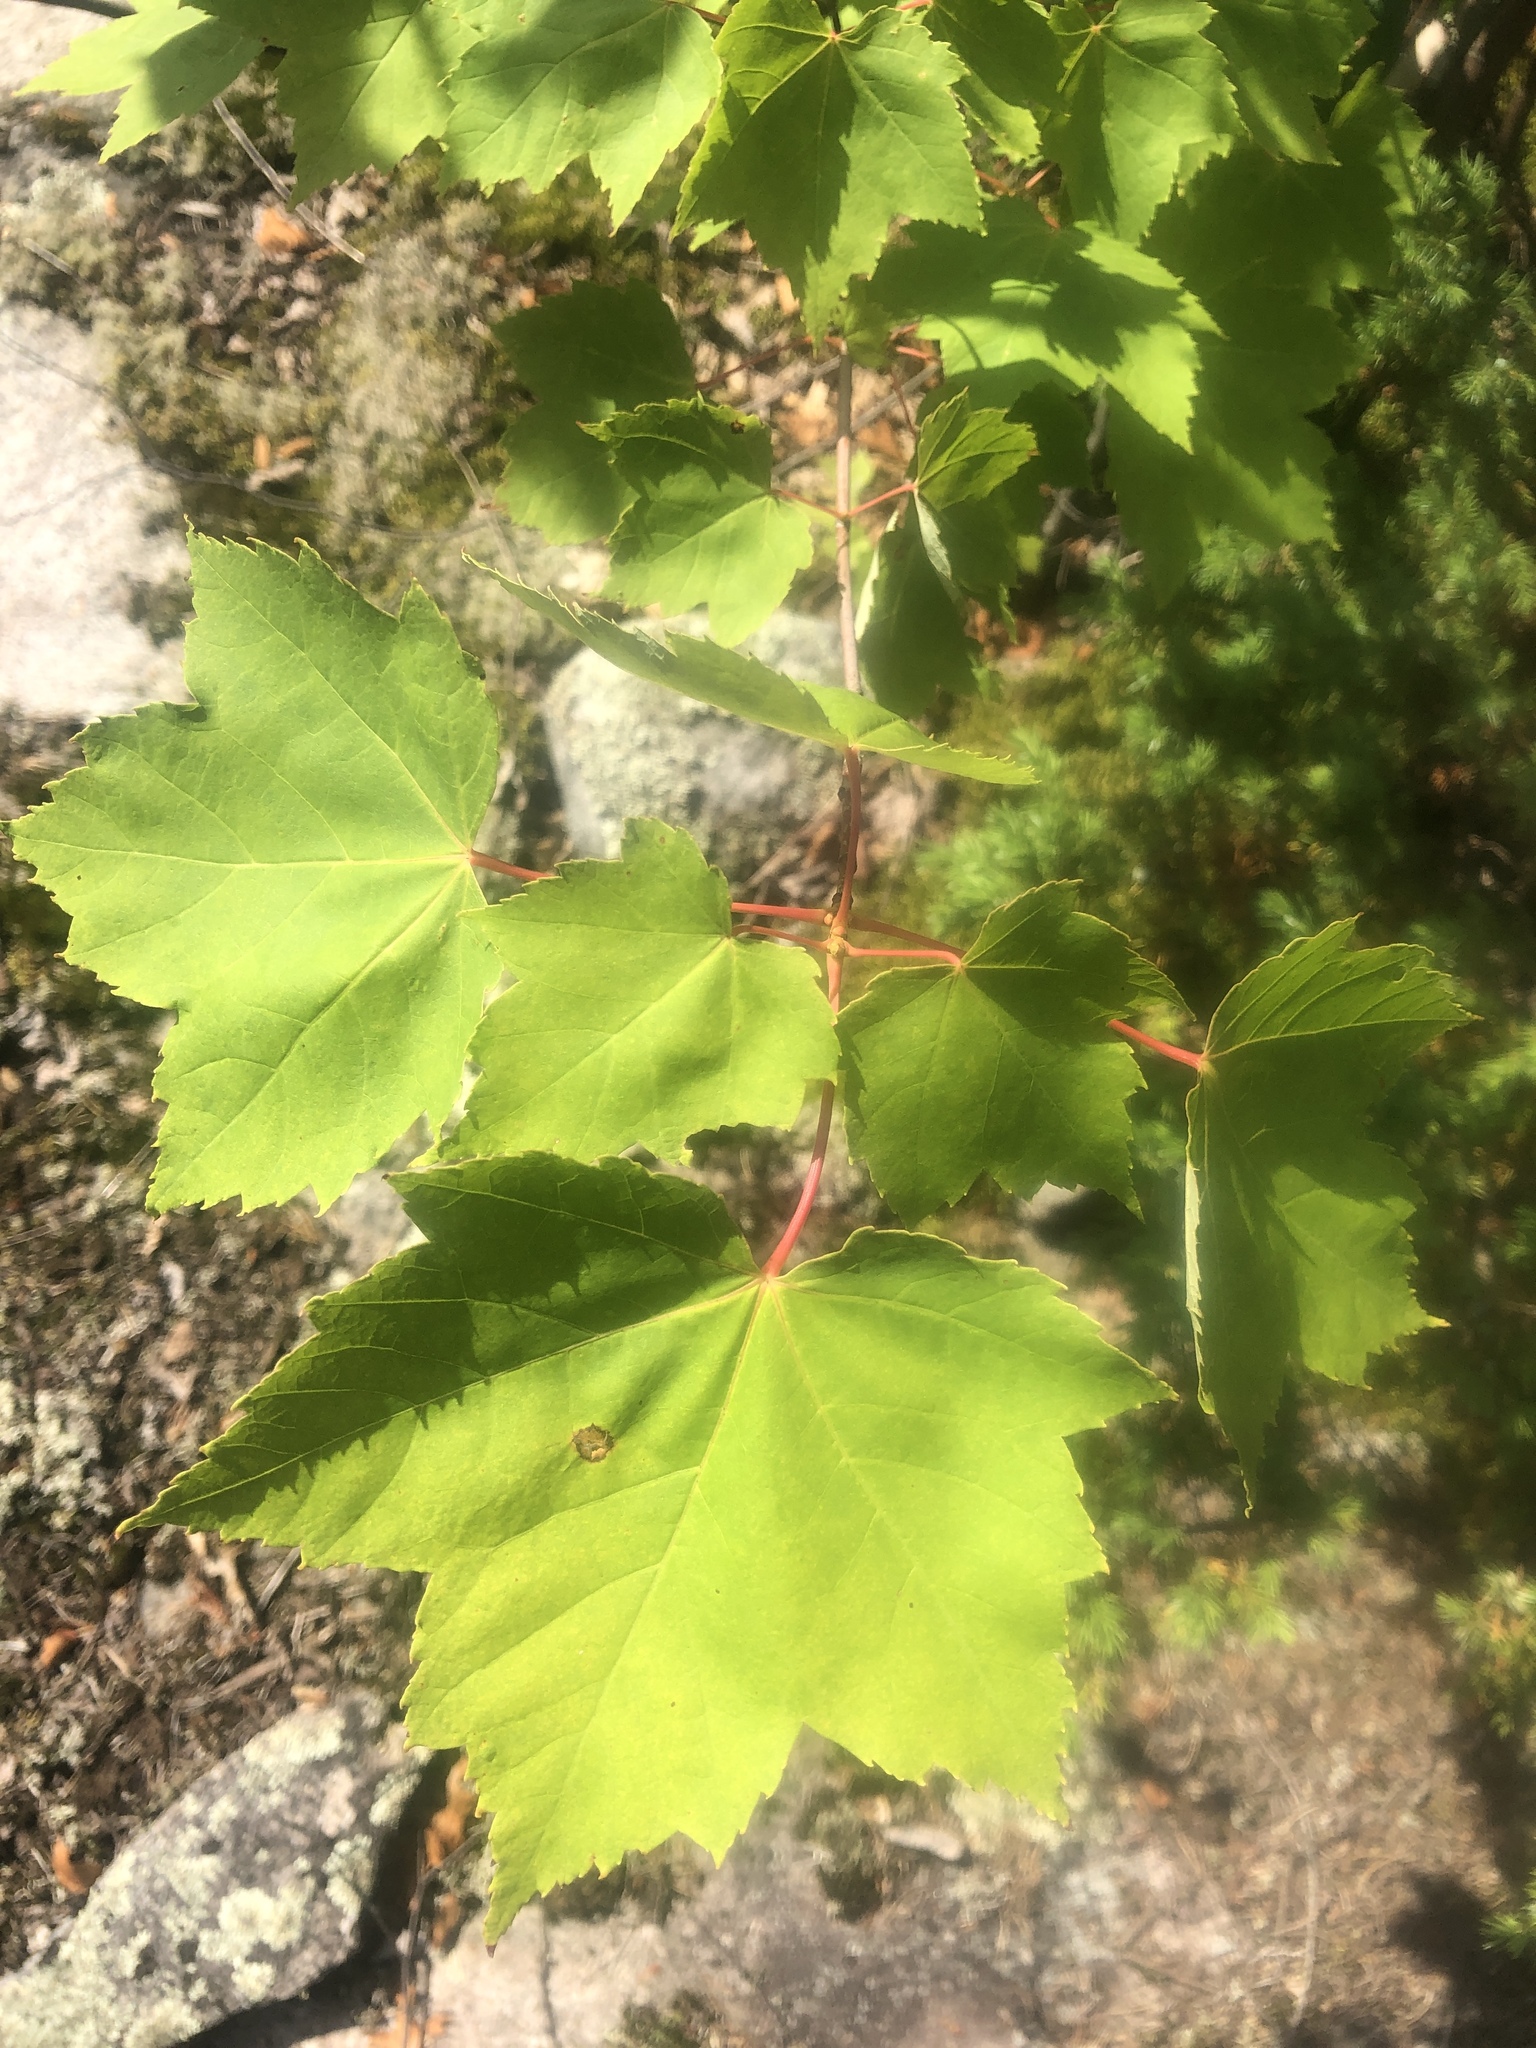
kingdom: Plantae
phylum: Tracheophyta
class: Magnoliopsida
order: Sapindales
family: Sapindaceae
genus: Acer
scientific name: Acer rubrum
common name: Red maple
